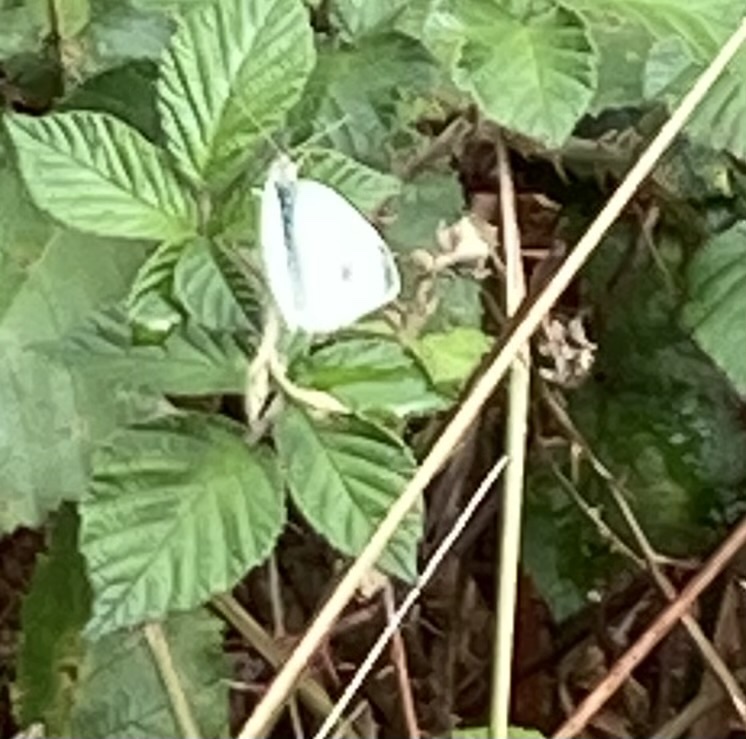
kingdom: Animalia
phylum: Arthropoda
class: Insecta
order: Lepidoptera
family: Pieridae
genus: Pieris
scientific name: Pieris rapae
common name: Small white
